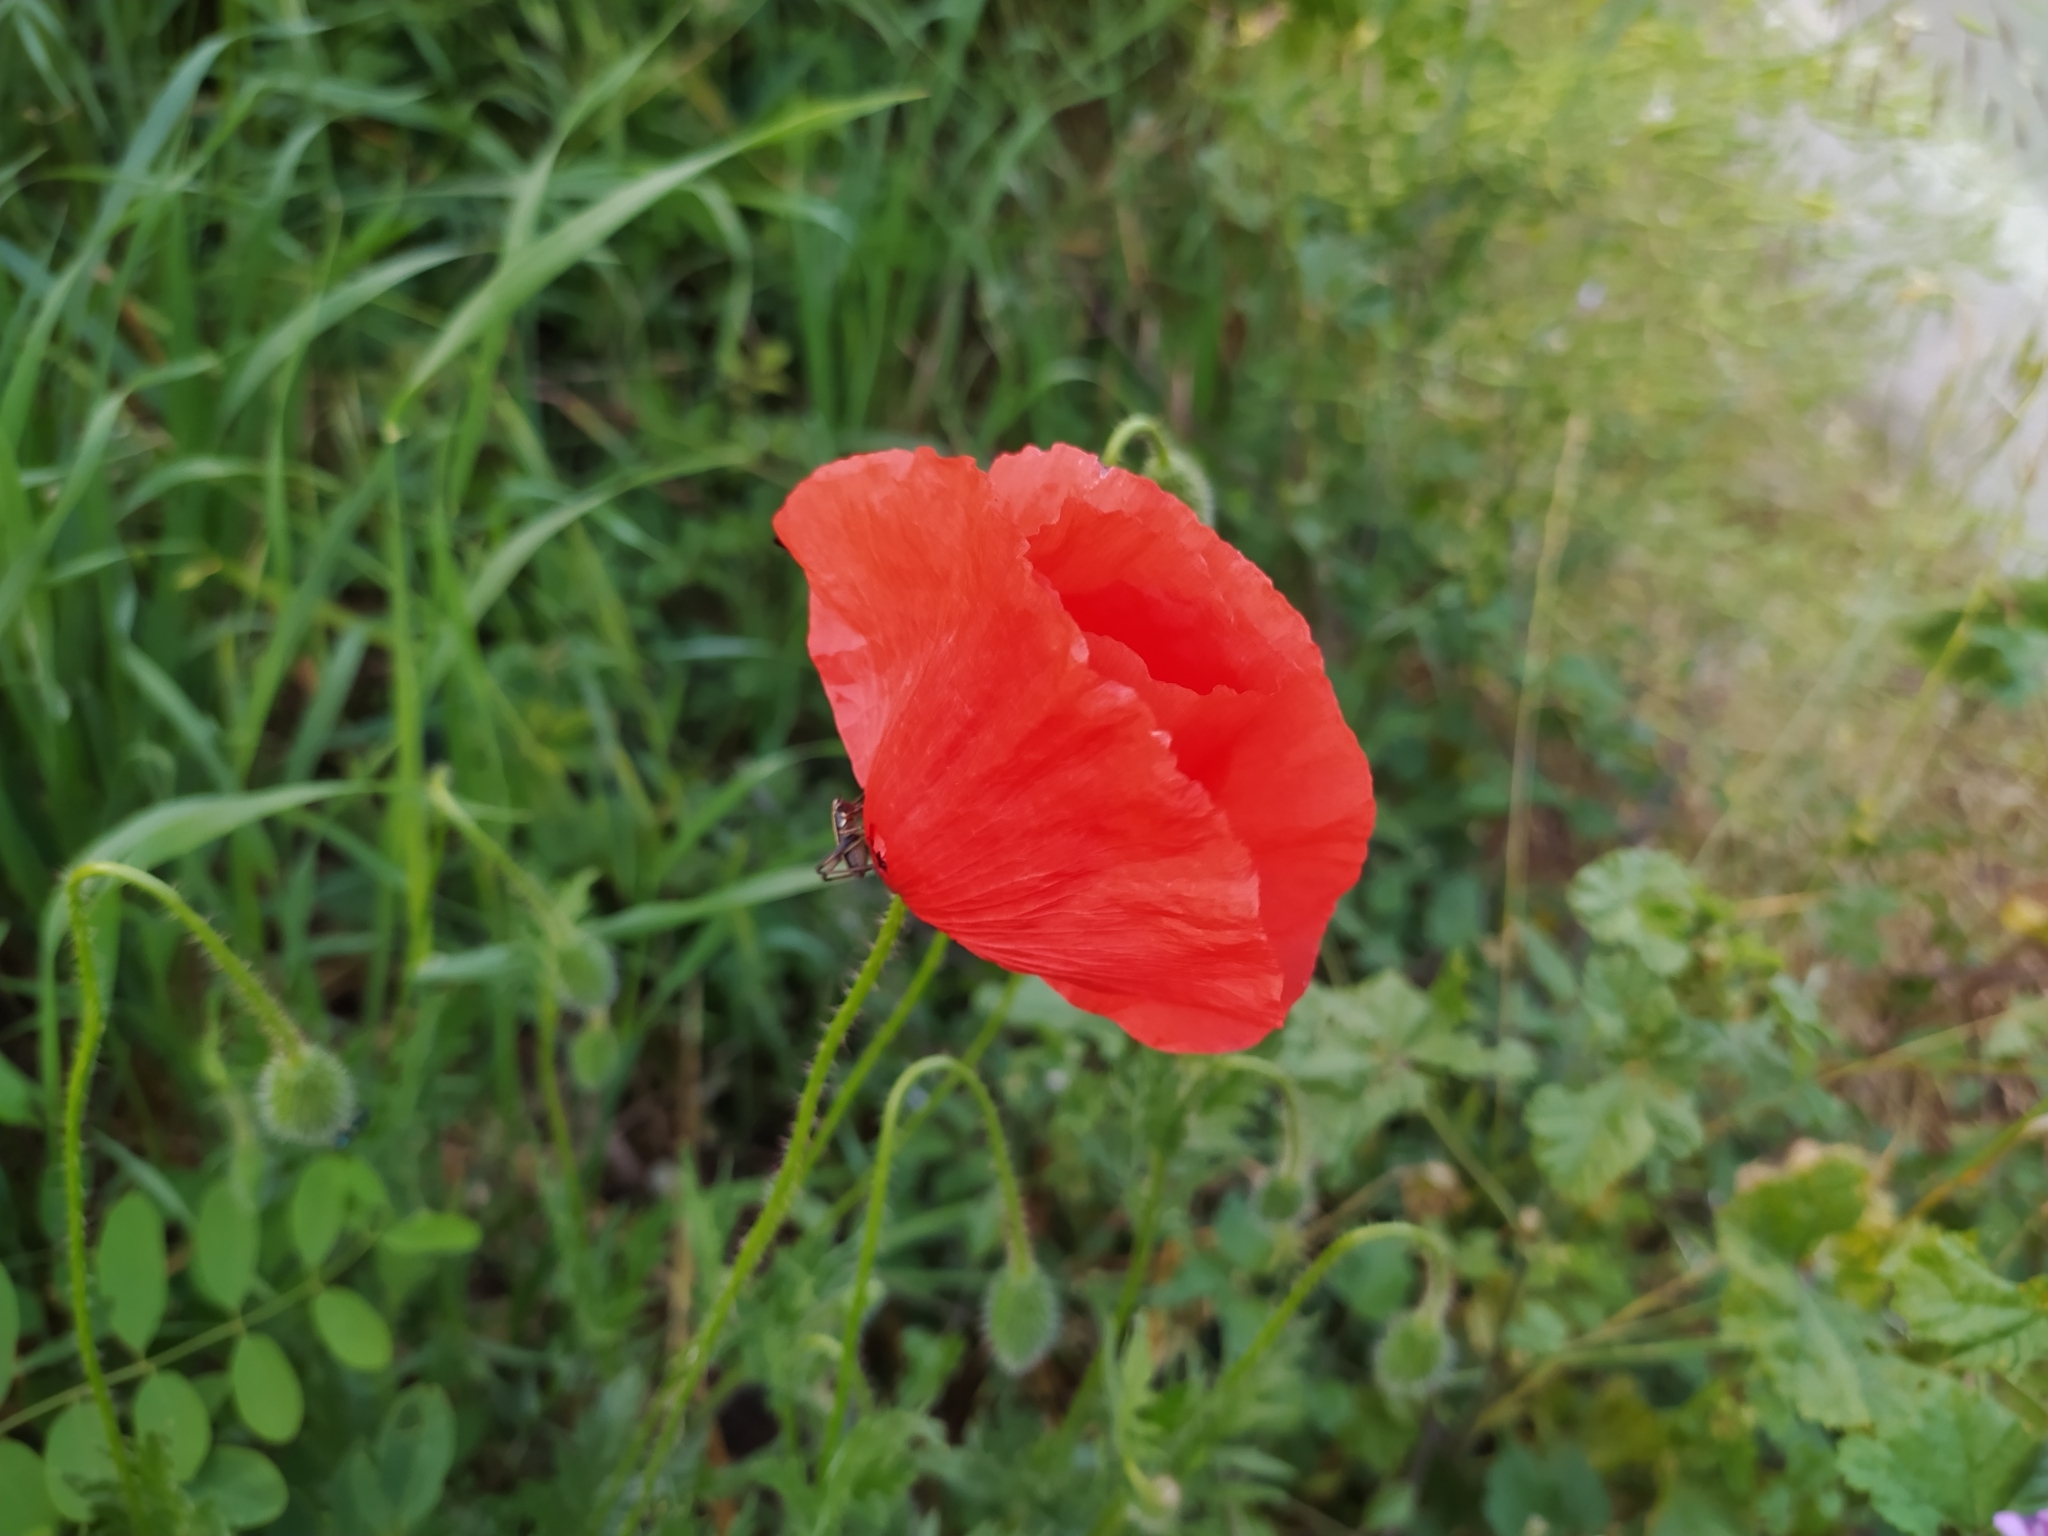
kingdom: Plantae
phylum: Tracheophyta
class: Magnoliopsida
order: Ranunculales
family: Papaveraceae
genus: Papaver
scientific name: Papaver rhoeas
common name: Corn poppy
